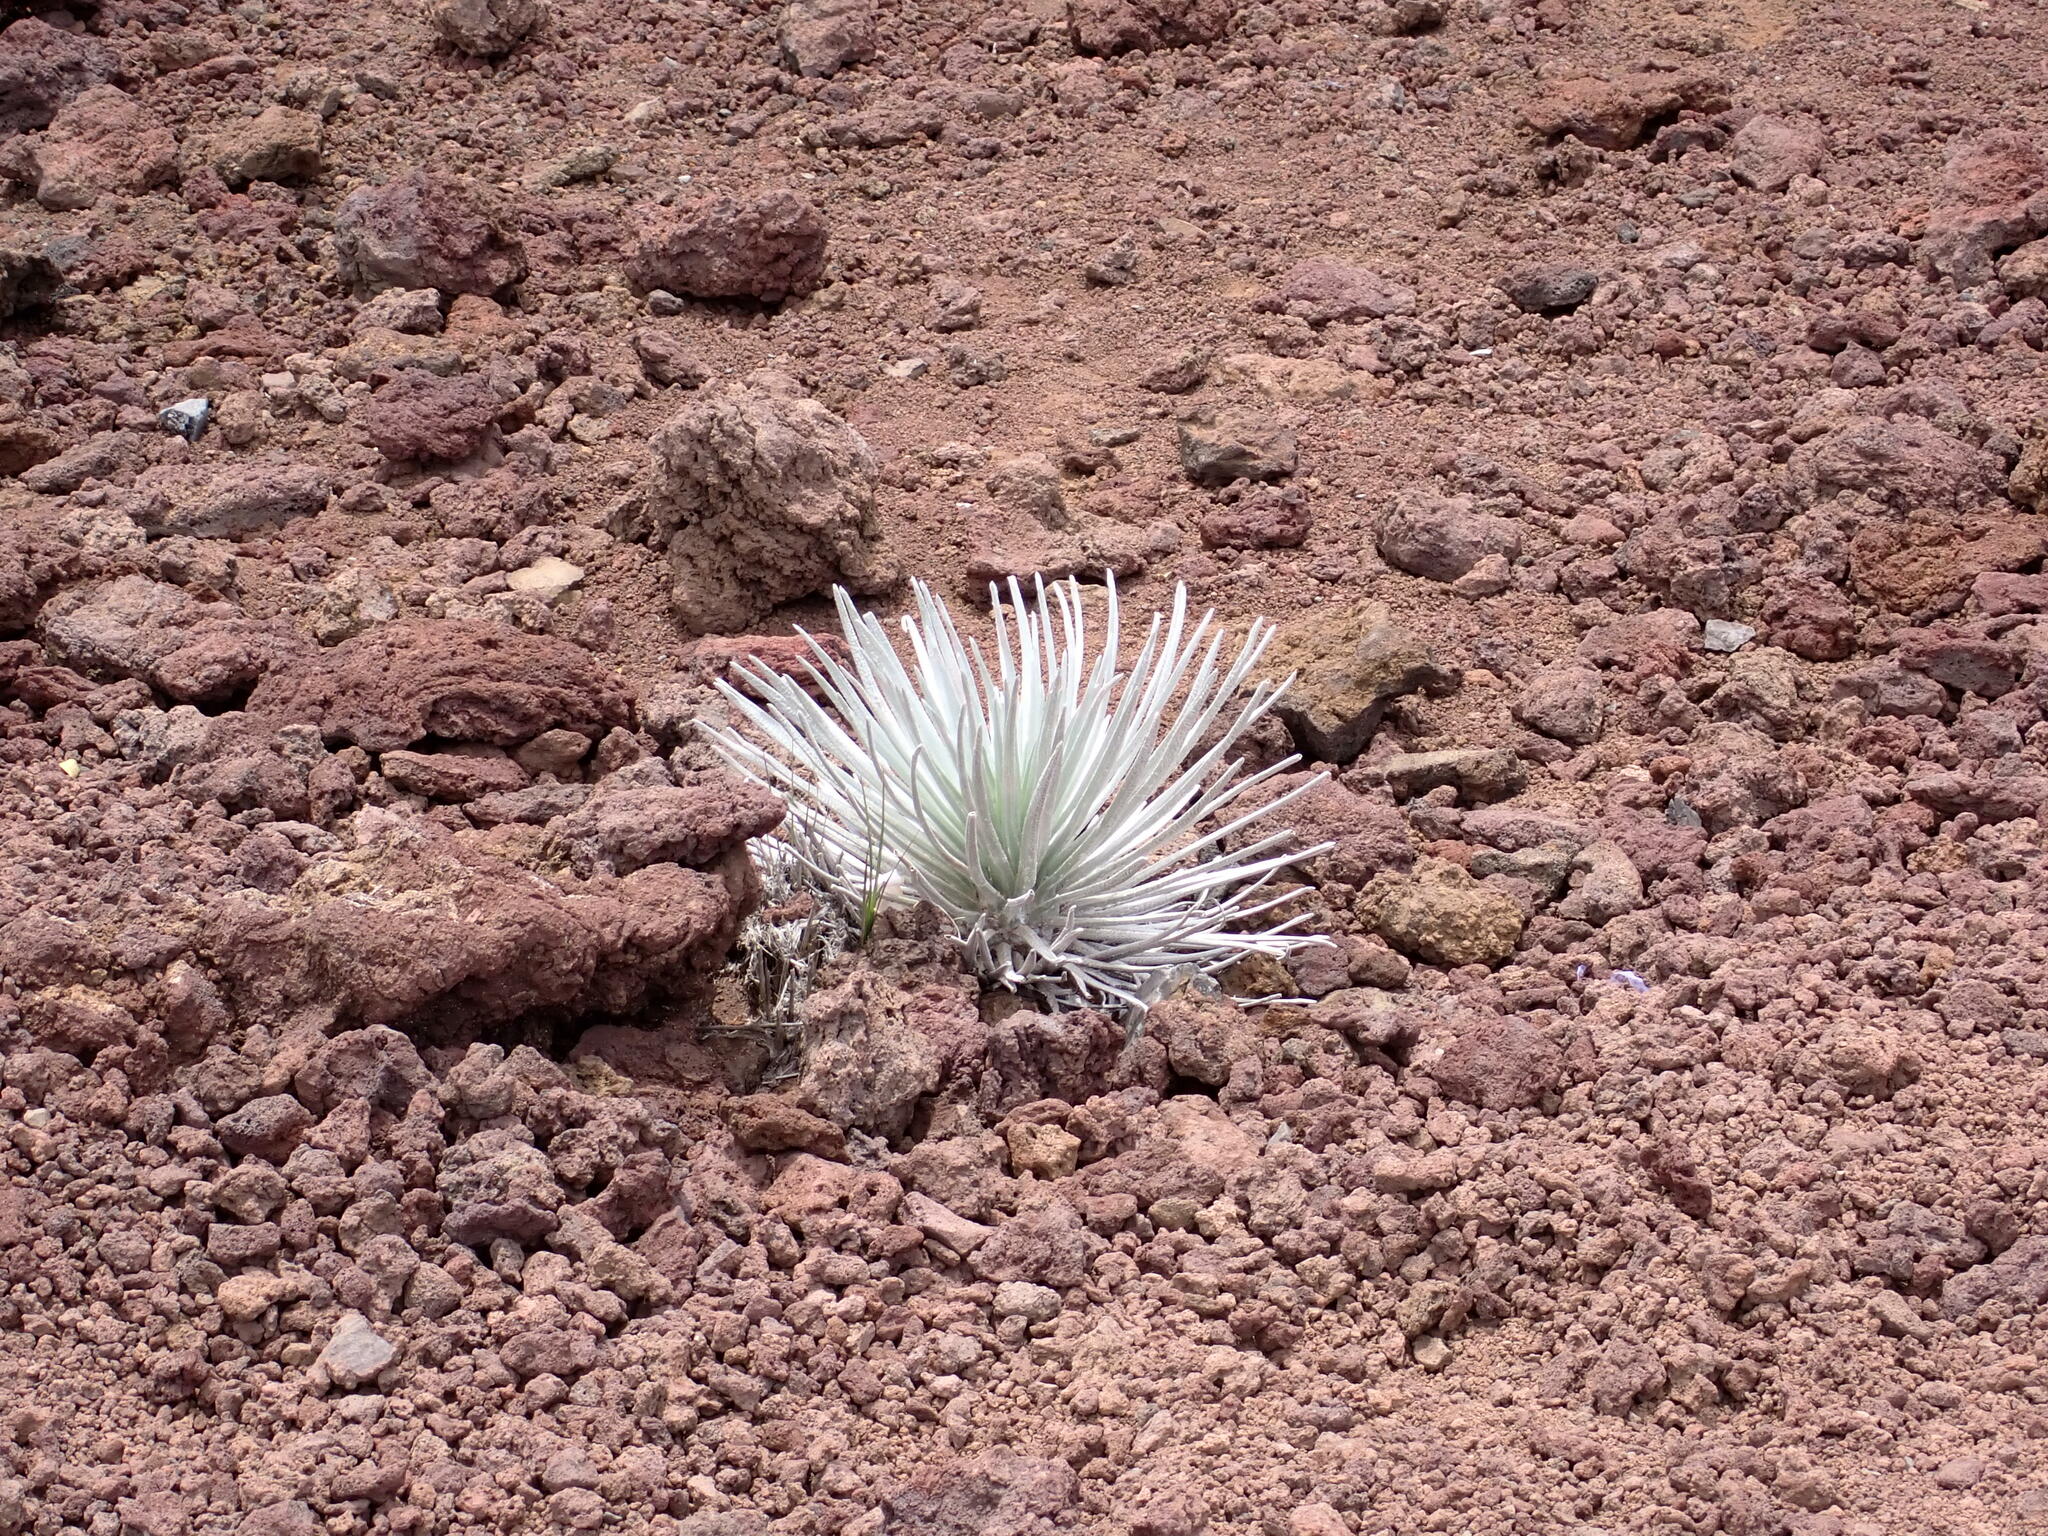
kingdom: Plantae
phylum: Tracheophyta
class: Magnoliopsida
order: Asterales
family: Asteraceae
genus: Argyroxiphium
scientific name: Argyroxiphium sandwicense
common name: Silversword
